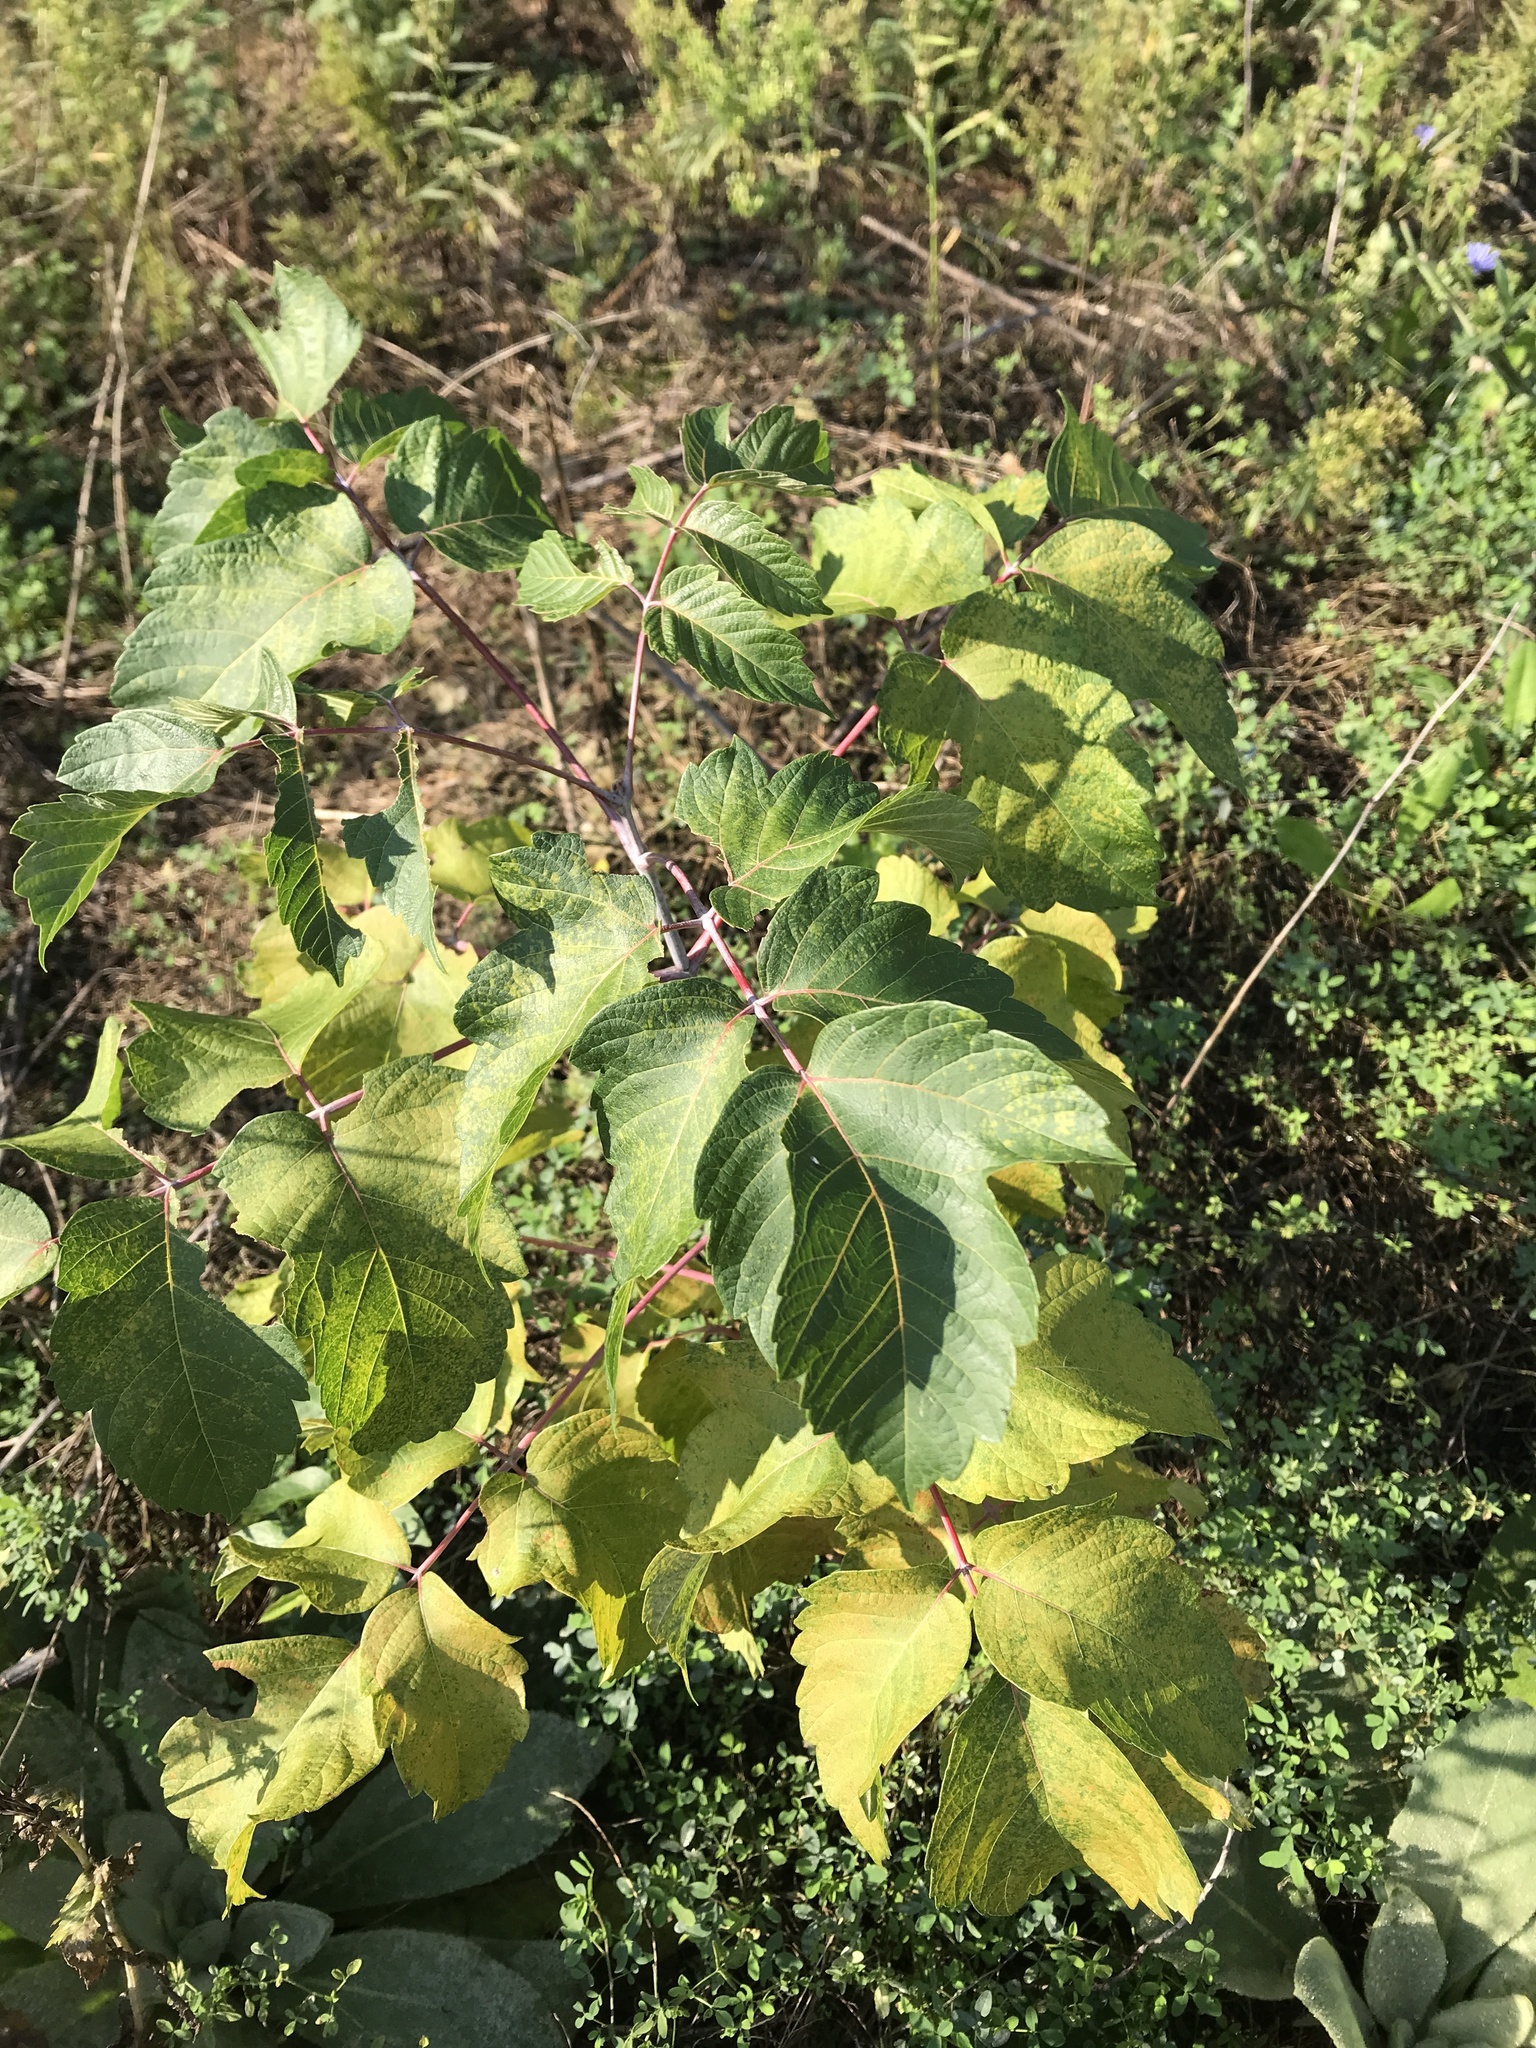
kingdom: Plantae
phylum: Tracheophyta
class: Magnoliopsida
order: Sapindales
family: Sapindaceae
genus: Acer
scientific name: Acer negundo
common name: Ashleaf maple
